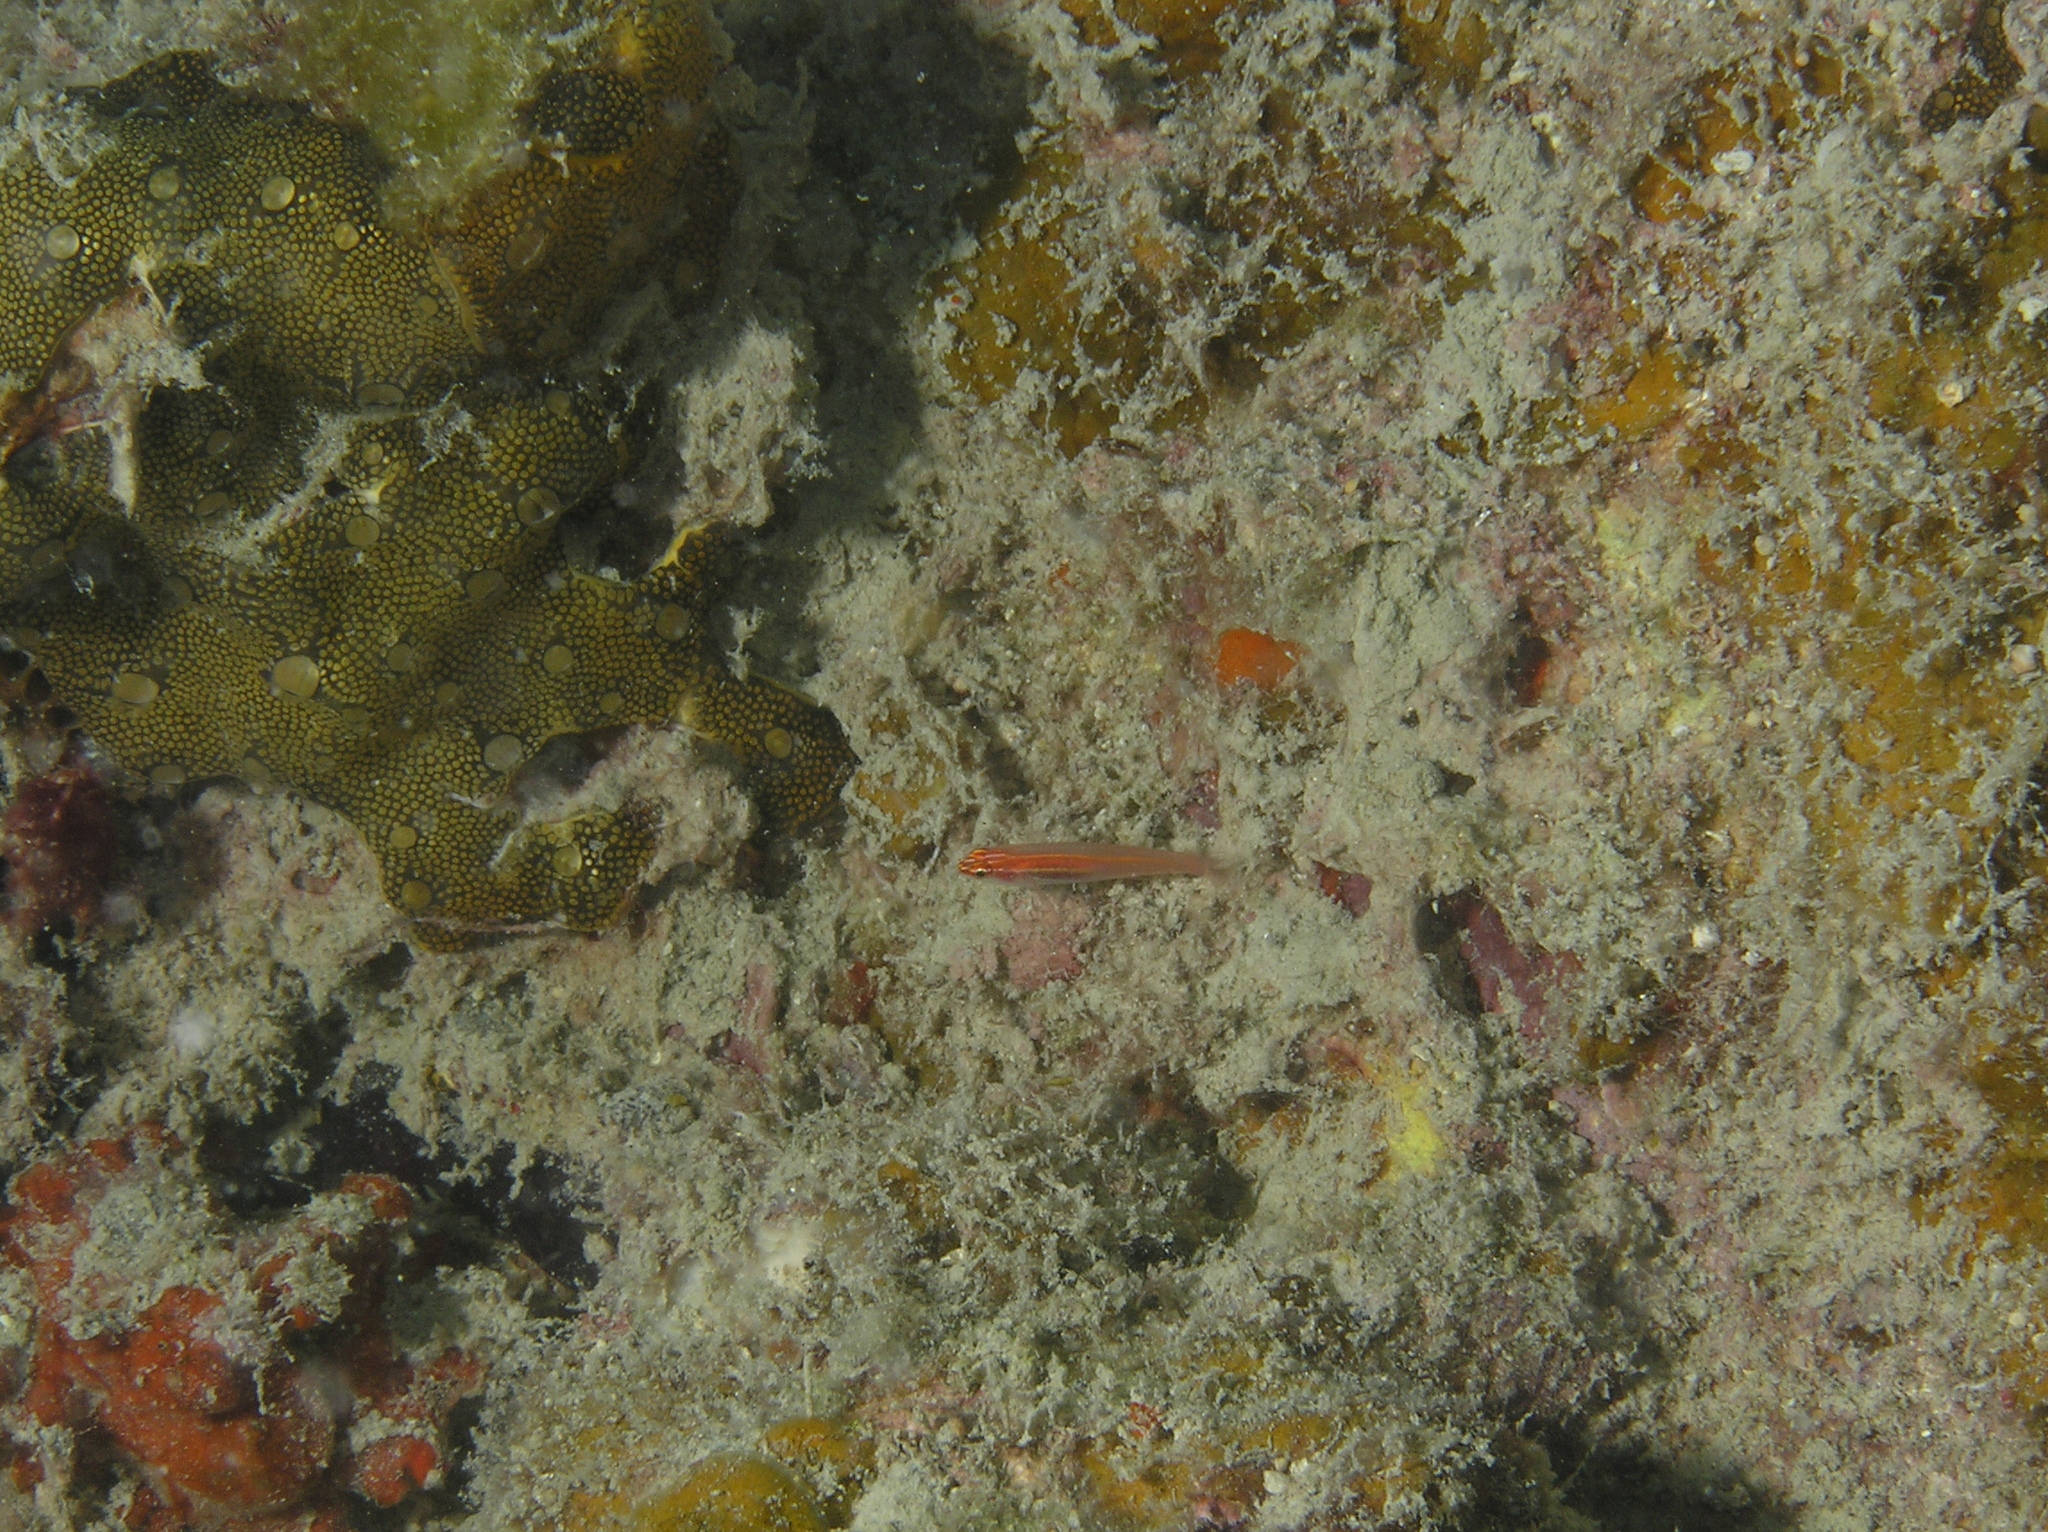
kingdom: Animalia
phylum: Chordata
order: Perciformes
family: Gobiidae
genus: Eviota
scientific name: Eviota atriventris
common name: Blackbelly dwarfgoby
